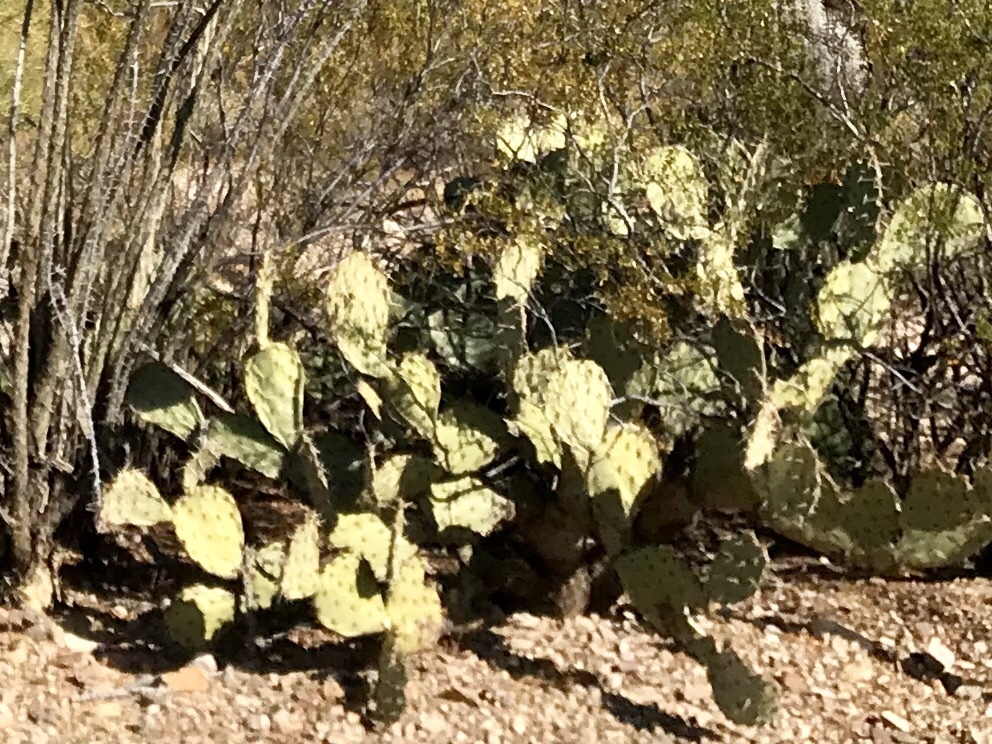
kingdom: Plantae
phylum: Tracheophyta
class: Magnoliopsida
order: Caryophyllales
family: Cactaceae
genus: Opuntia
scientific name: Opuntia engelmannii
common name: Cactus-apple
